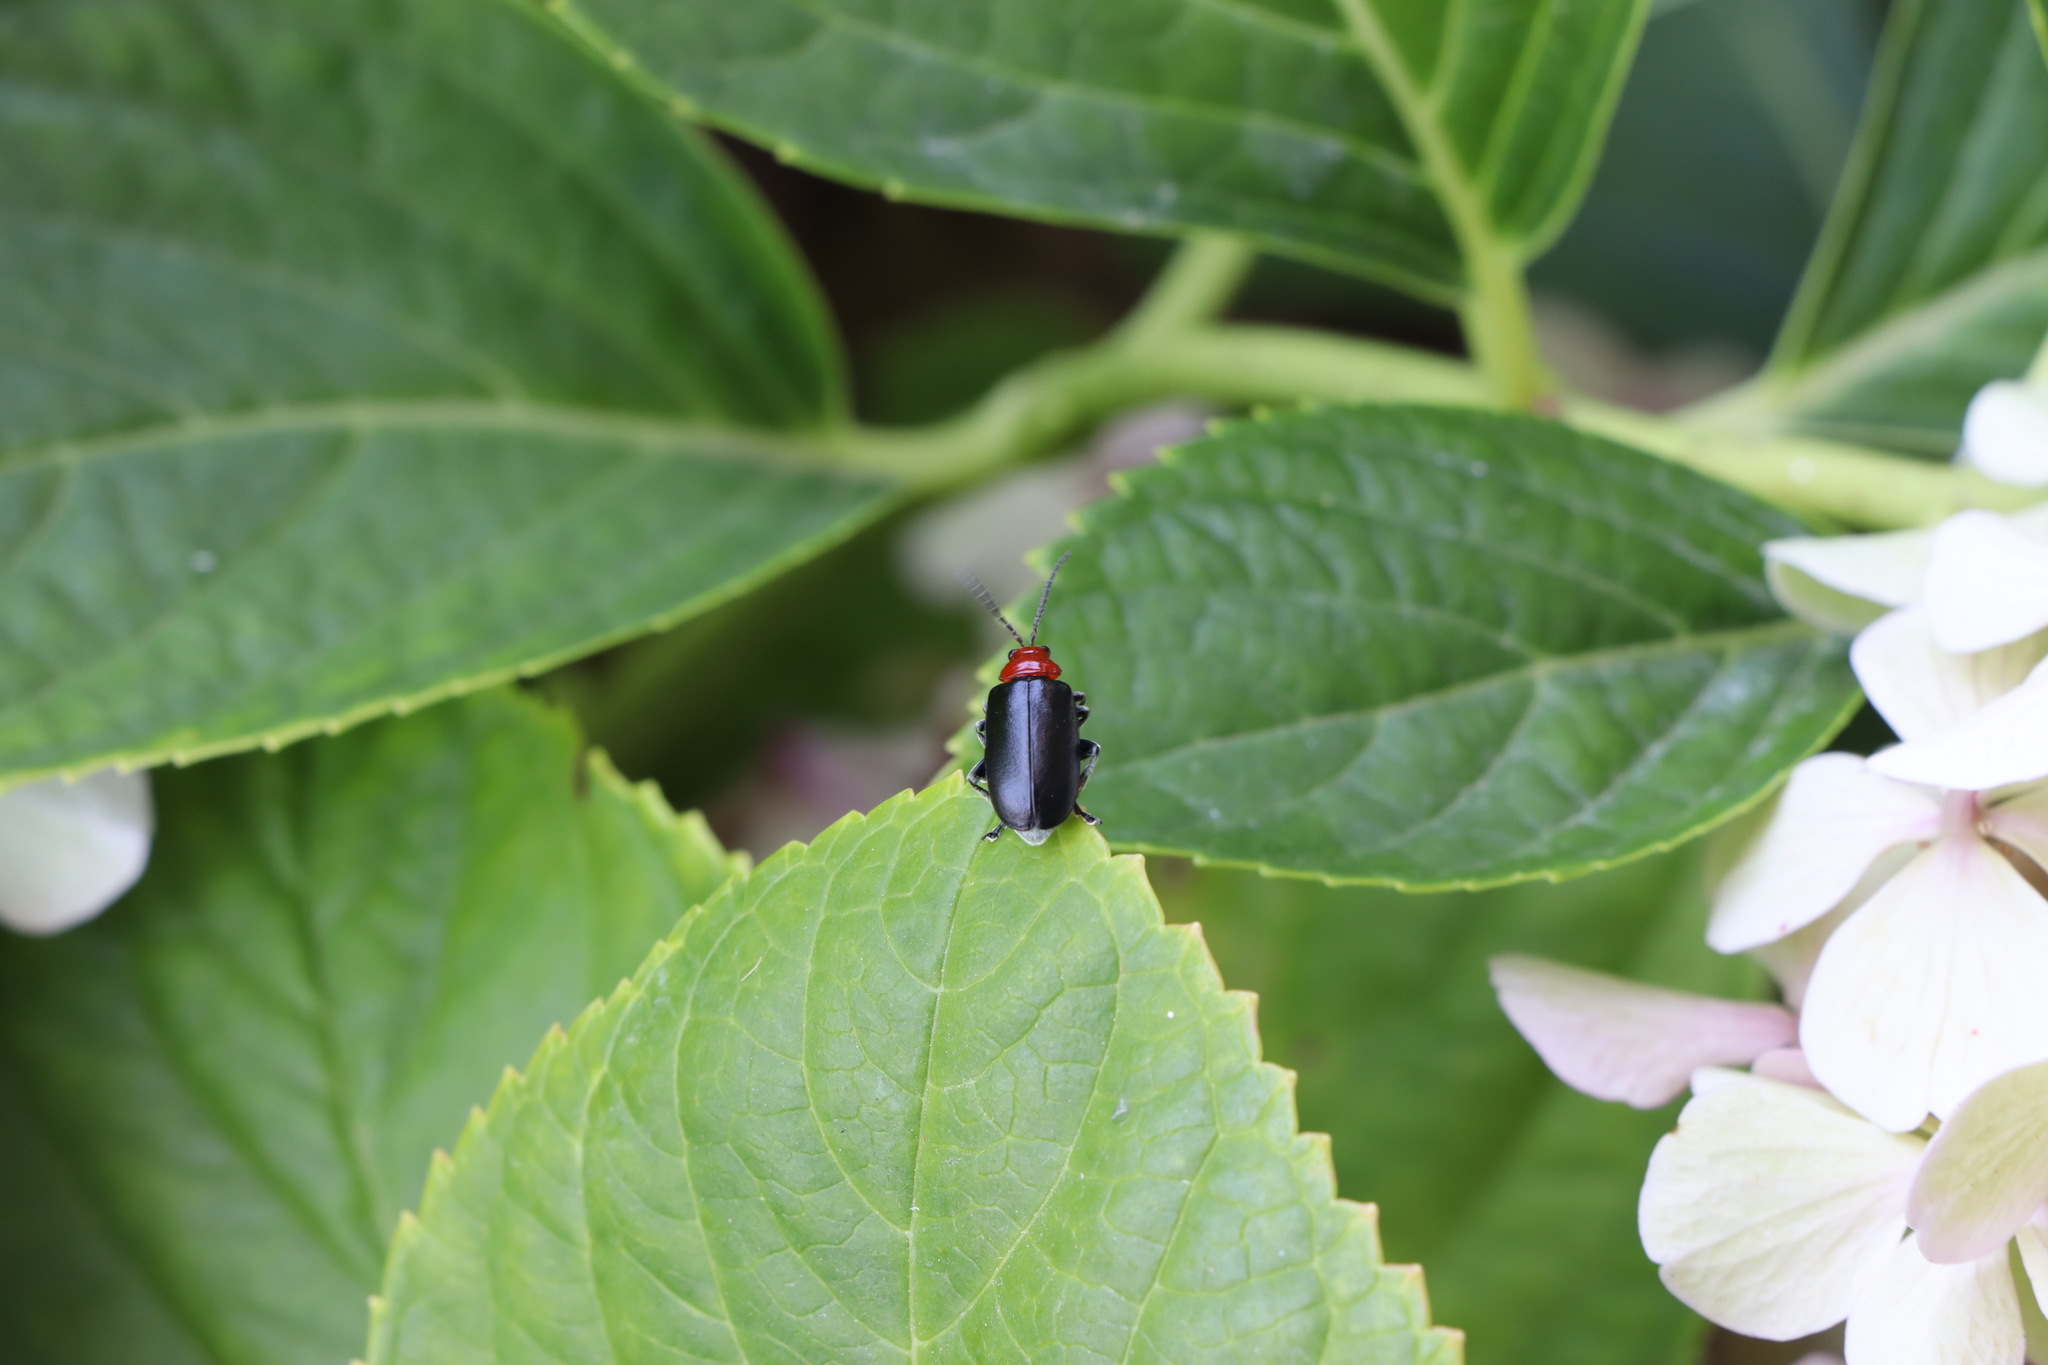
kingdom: Animalia
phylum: Arthropoda
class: Insecta
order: Coleoptera
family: Chrysomelidae
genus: Cacoscelis
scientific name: Cacoscelis
